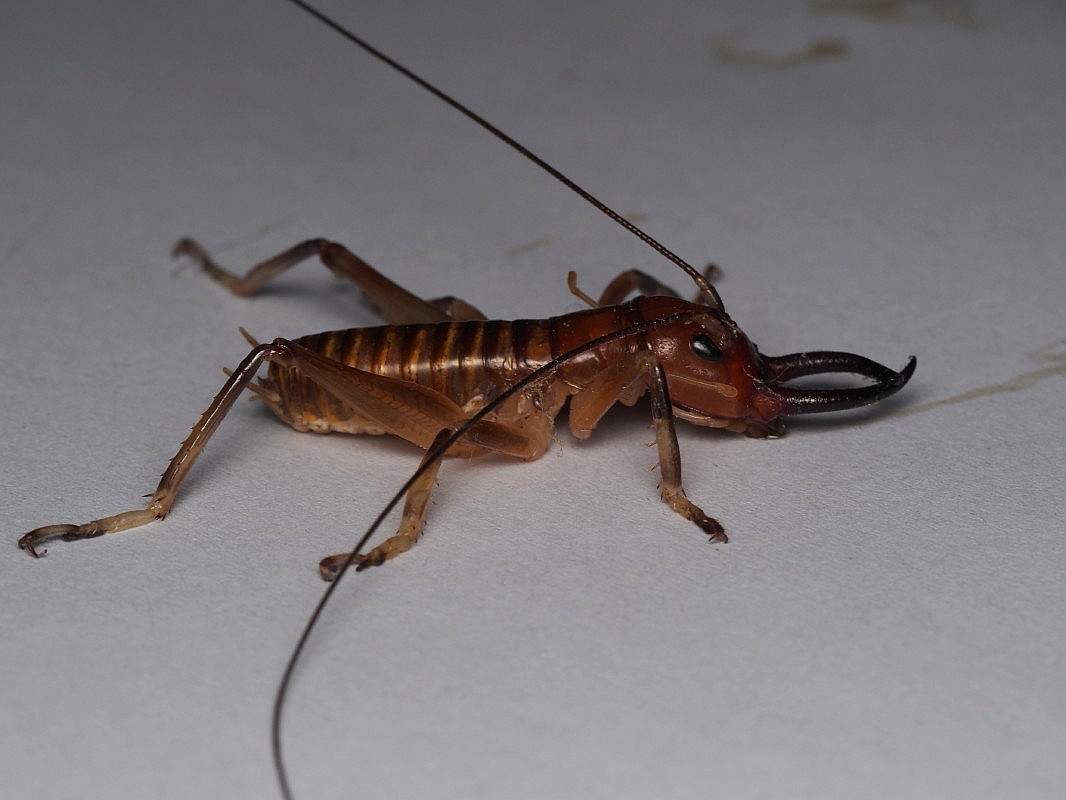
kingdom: Animalia
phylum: Arthropoda
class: Insecta
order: Orthoptera
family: Anostostomatidae
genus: Anisoura
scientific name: Anisoura nicobarica
